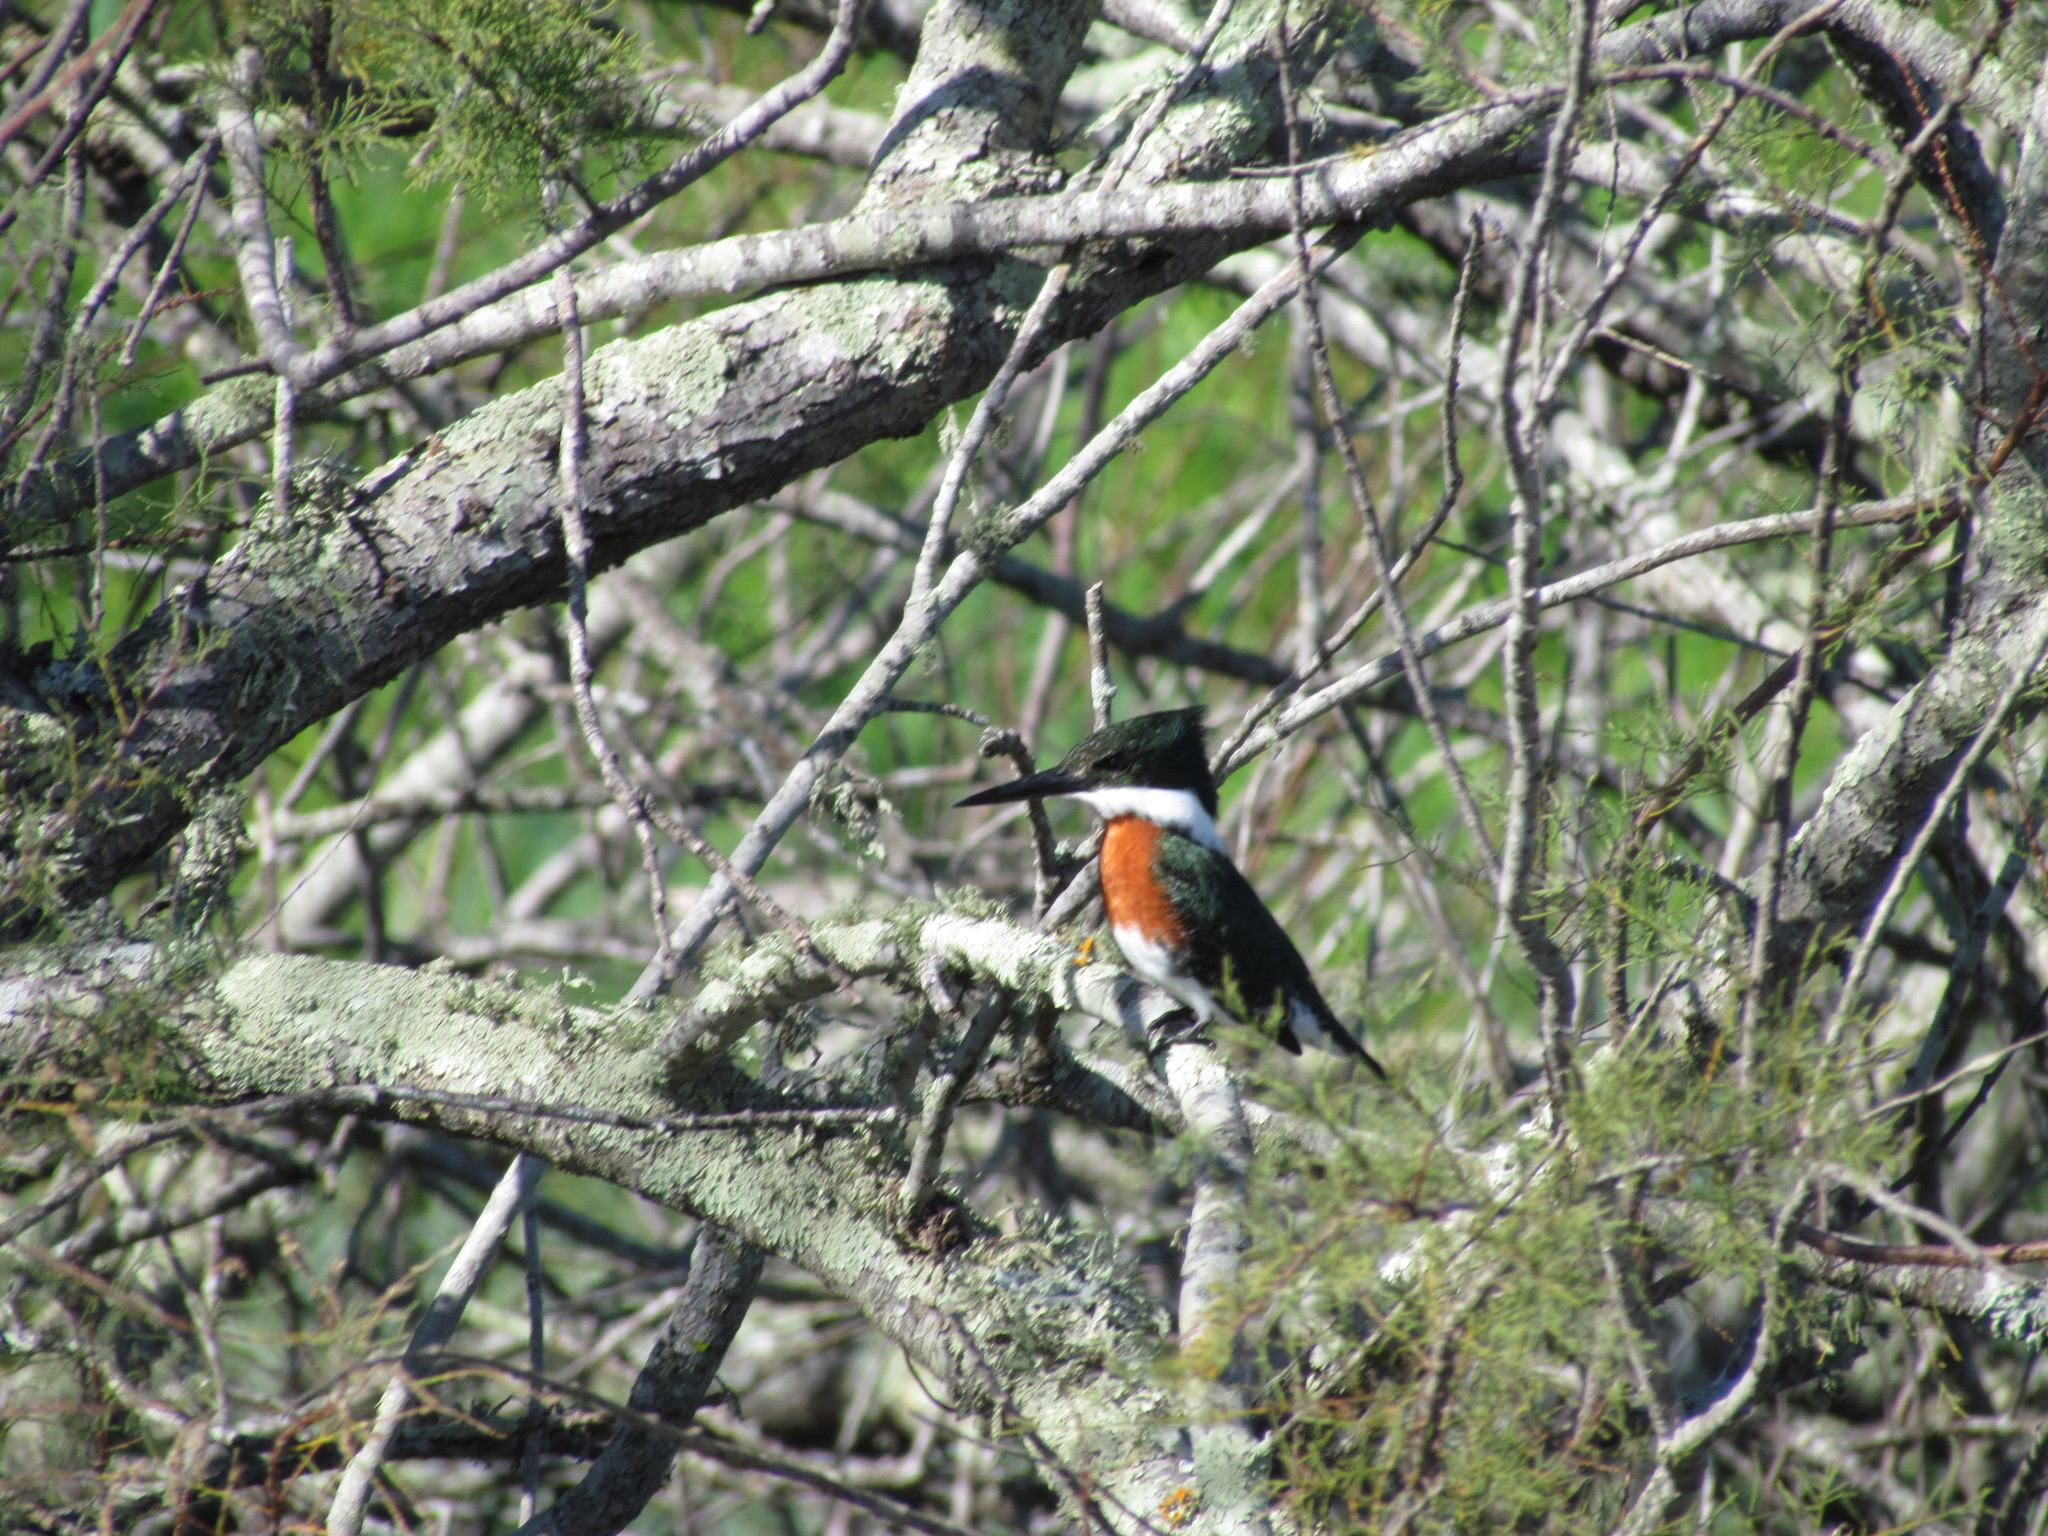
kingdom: Animalia
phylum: Chordata
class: Aves
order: Coraciiformes
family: Alcedinidae
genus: Chloroceryle
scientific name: Chloroceryle americana
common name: Green kingfisher
